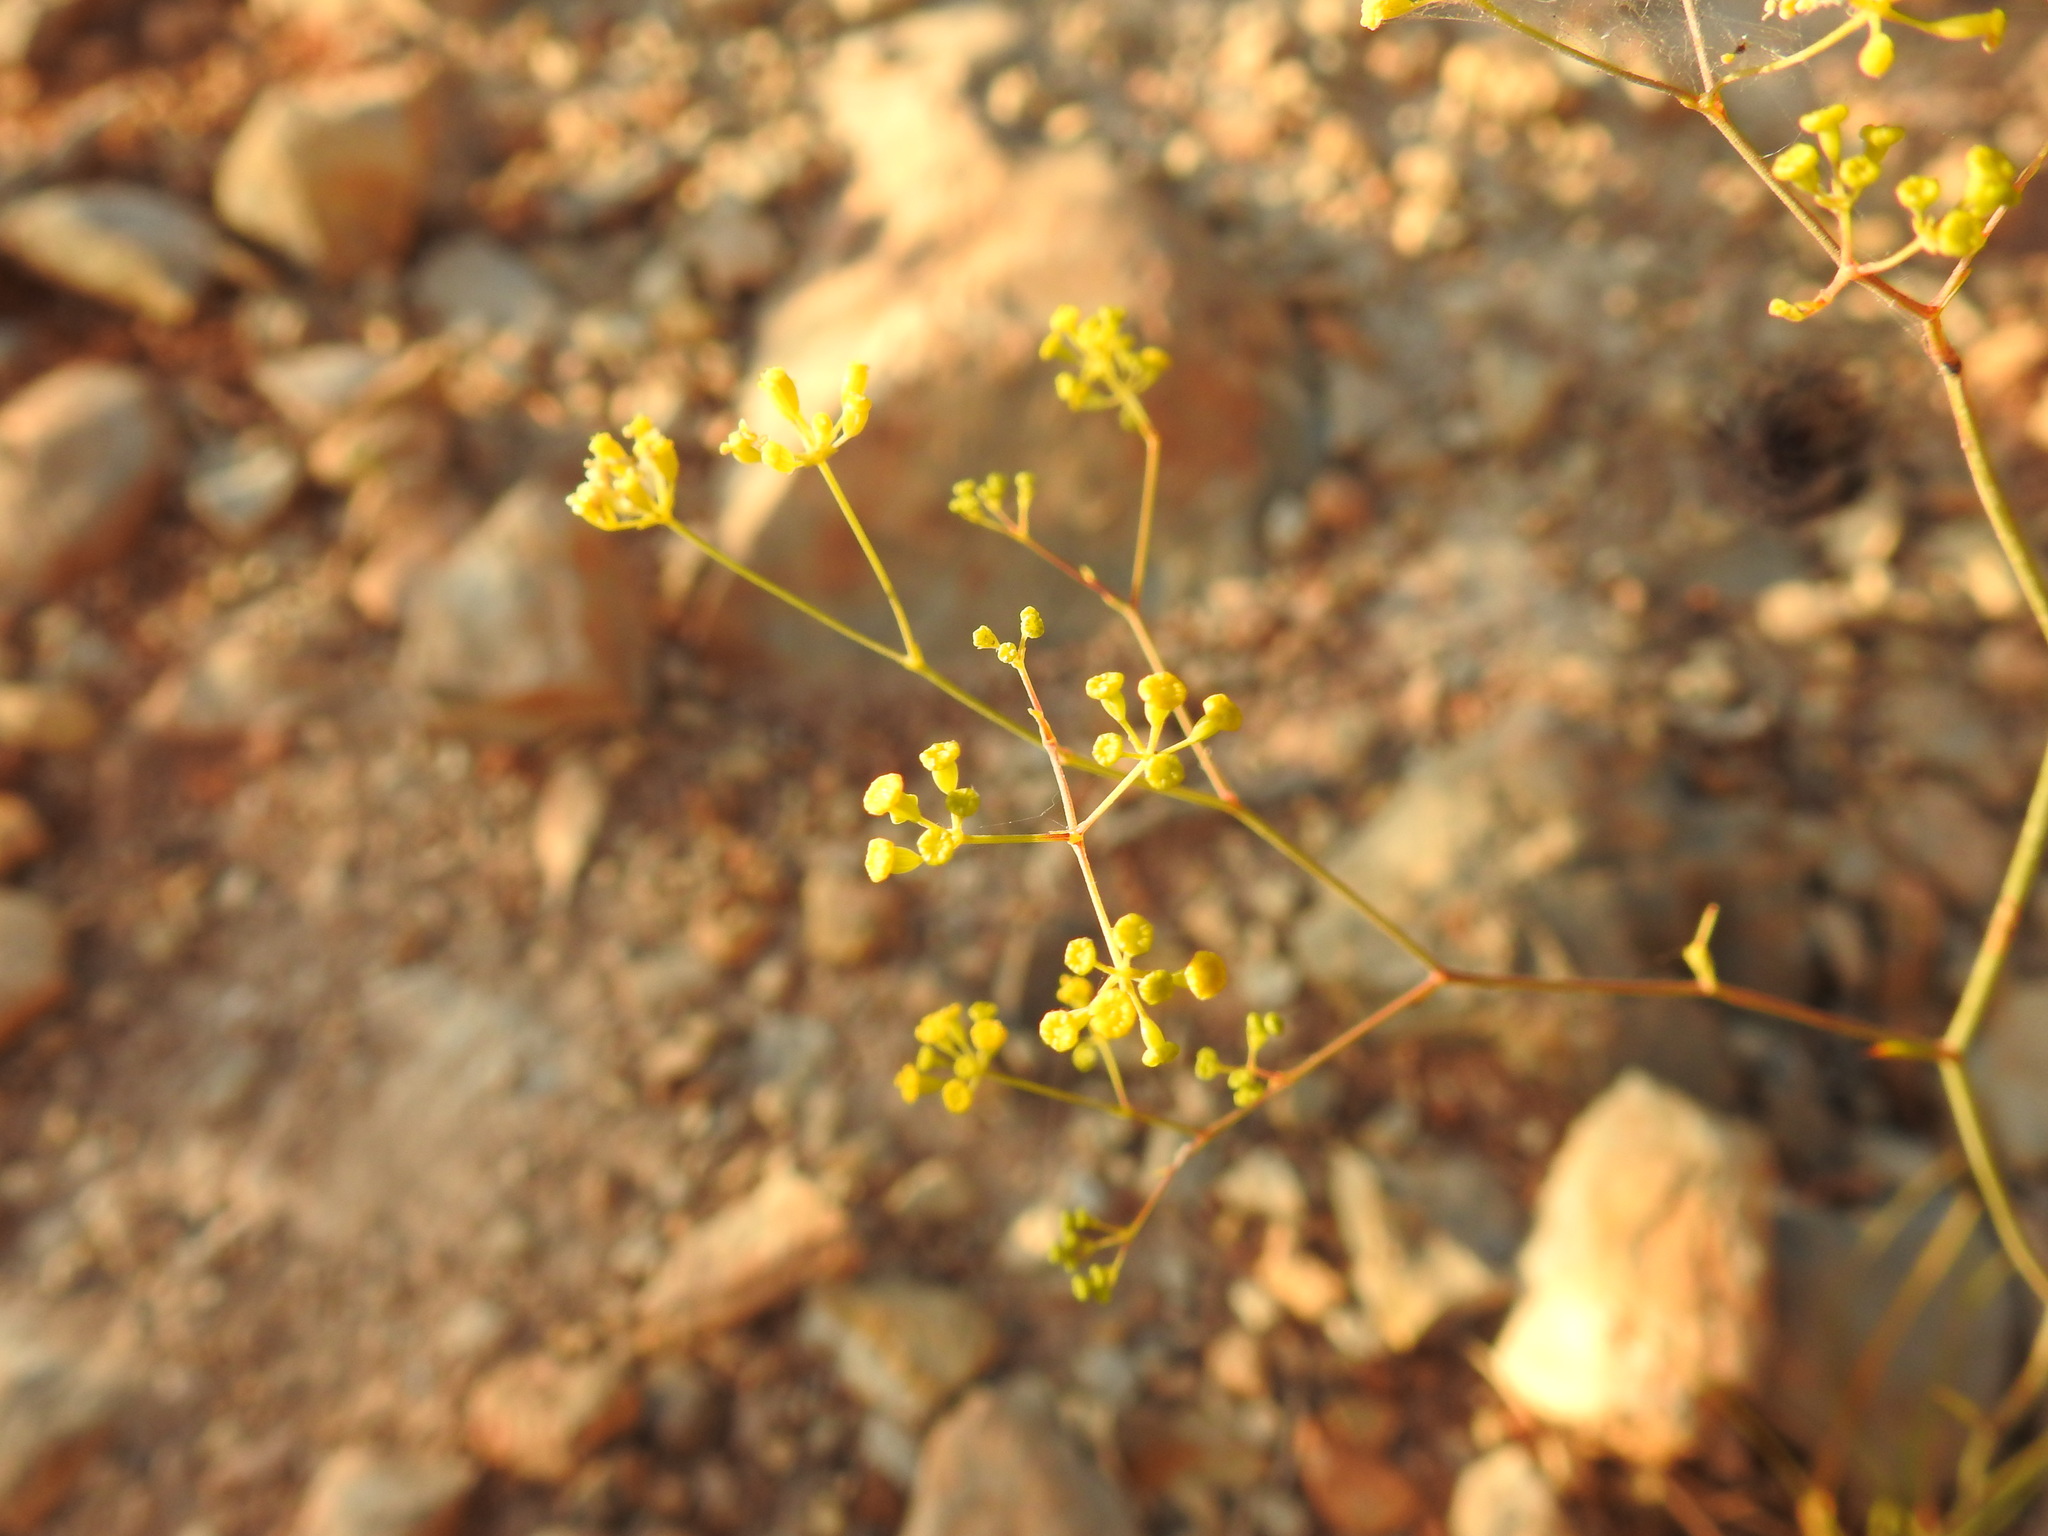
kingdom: Plantae
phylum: Tracheophyta
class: Magnoliopsida
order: Apiales
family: Apiaceae
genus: Bupleurum
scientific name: Bupleurum rigidum
